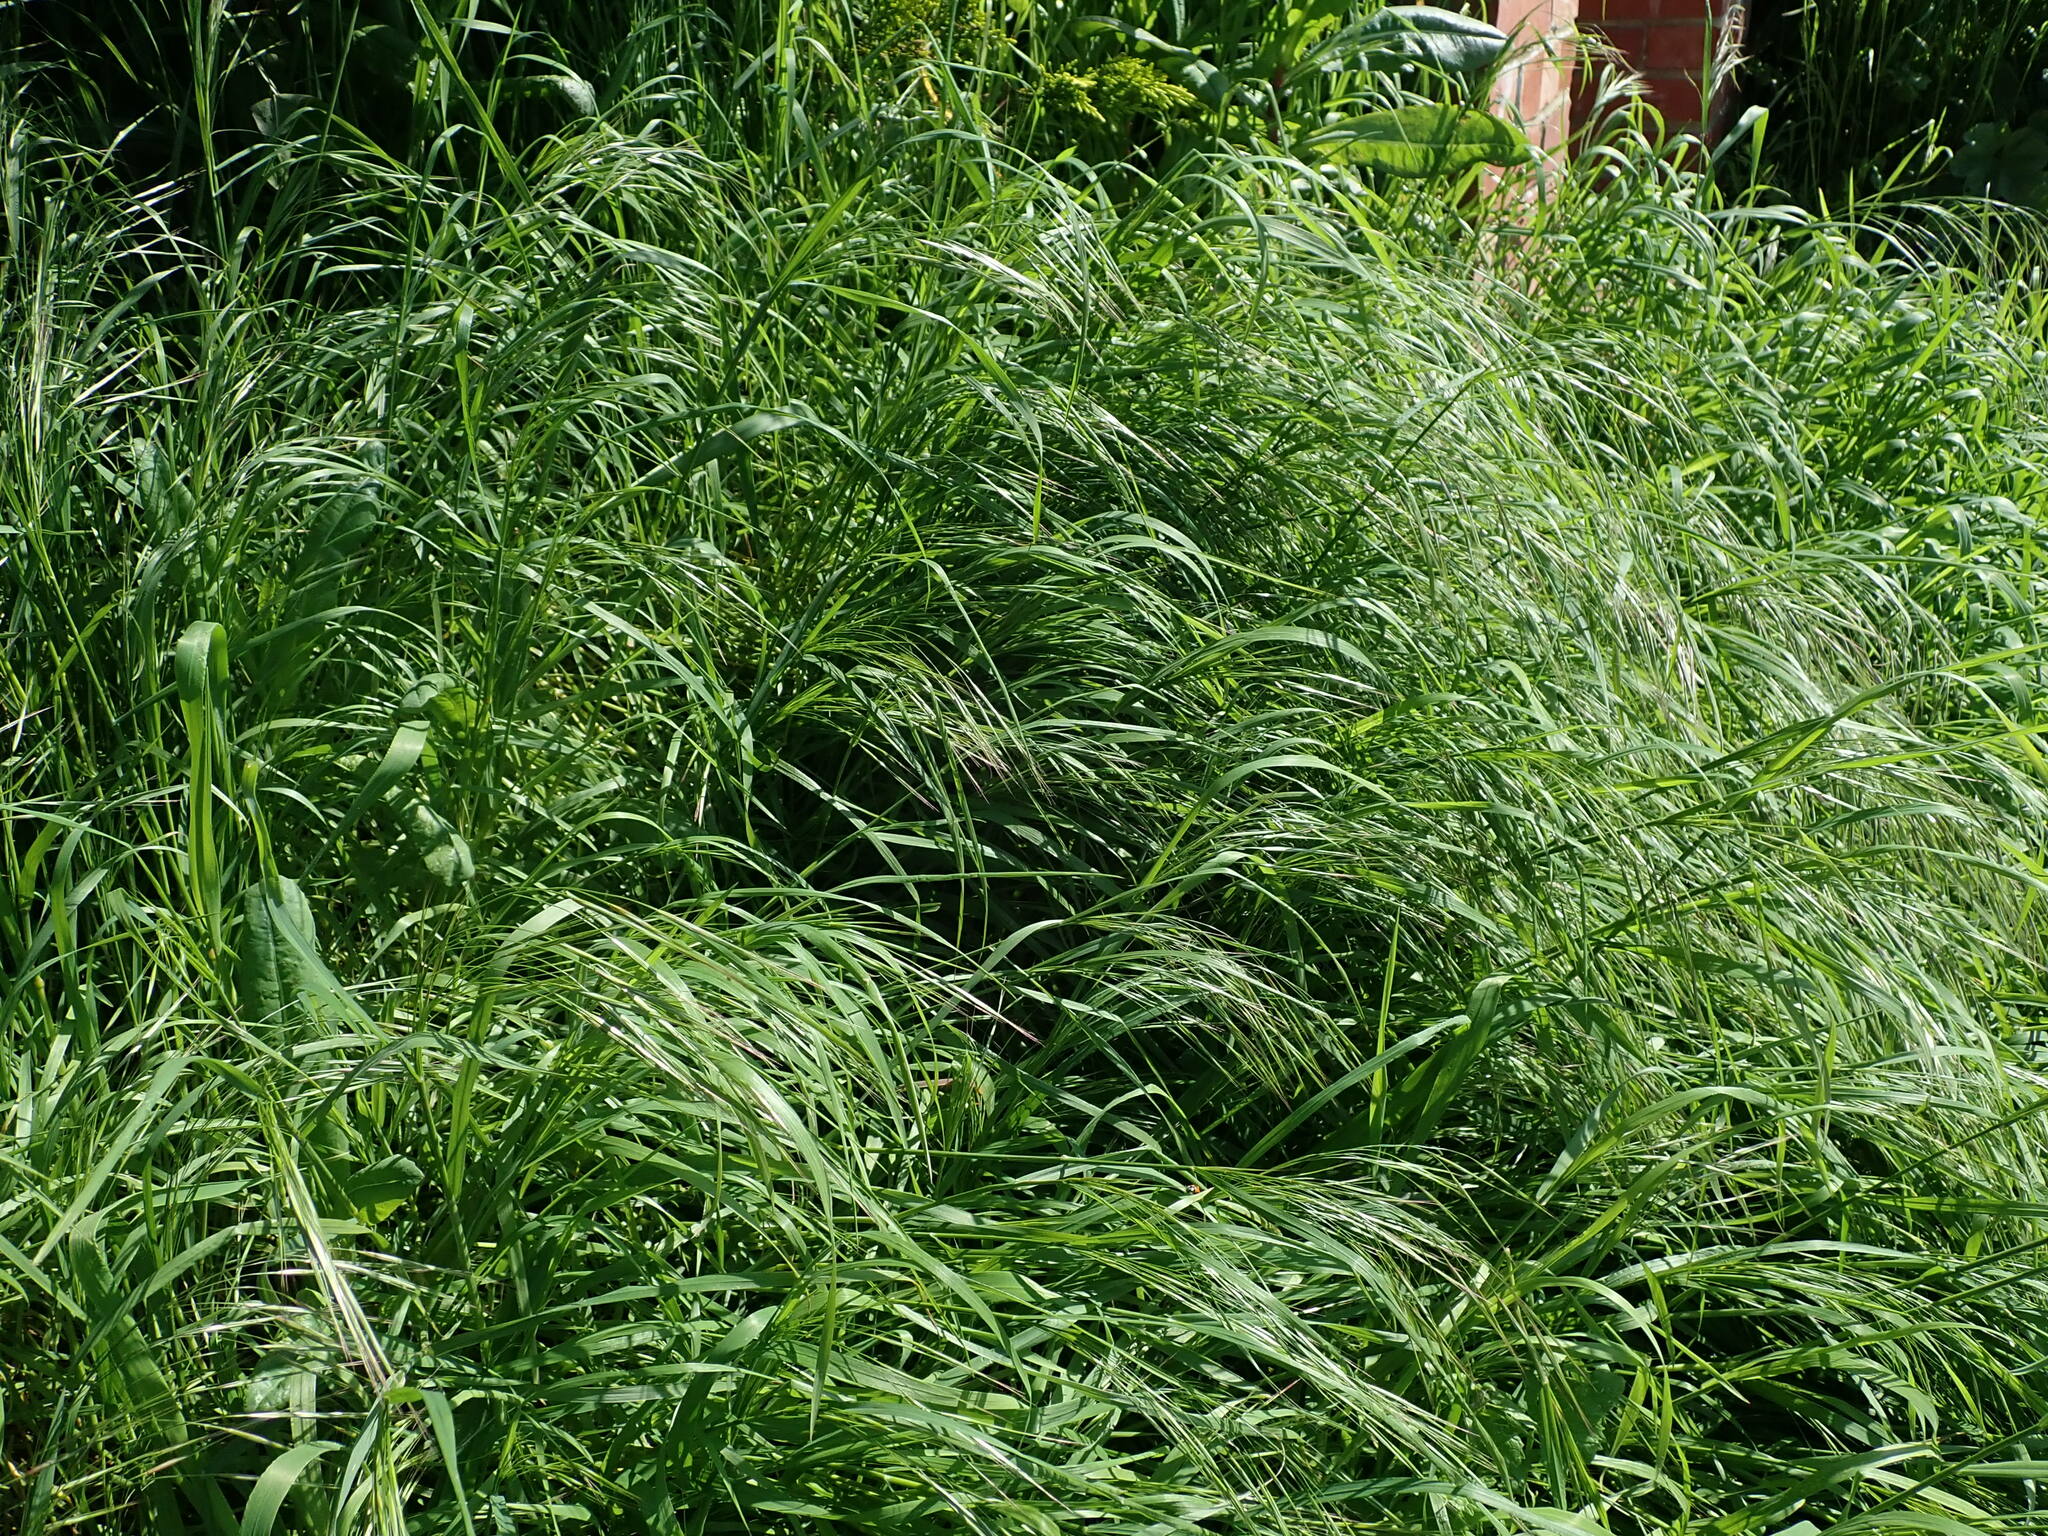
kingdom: Plantae
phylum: Tracheophyta
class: Liliopsida
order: Poales
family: Poaceae
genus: Bromus
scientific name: Bromus sterilis
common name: Poverty brome
